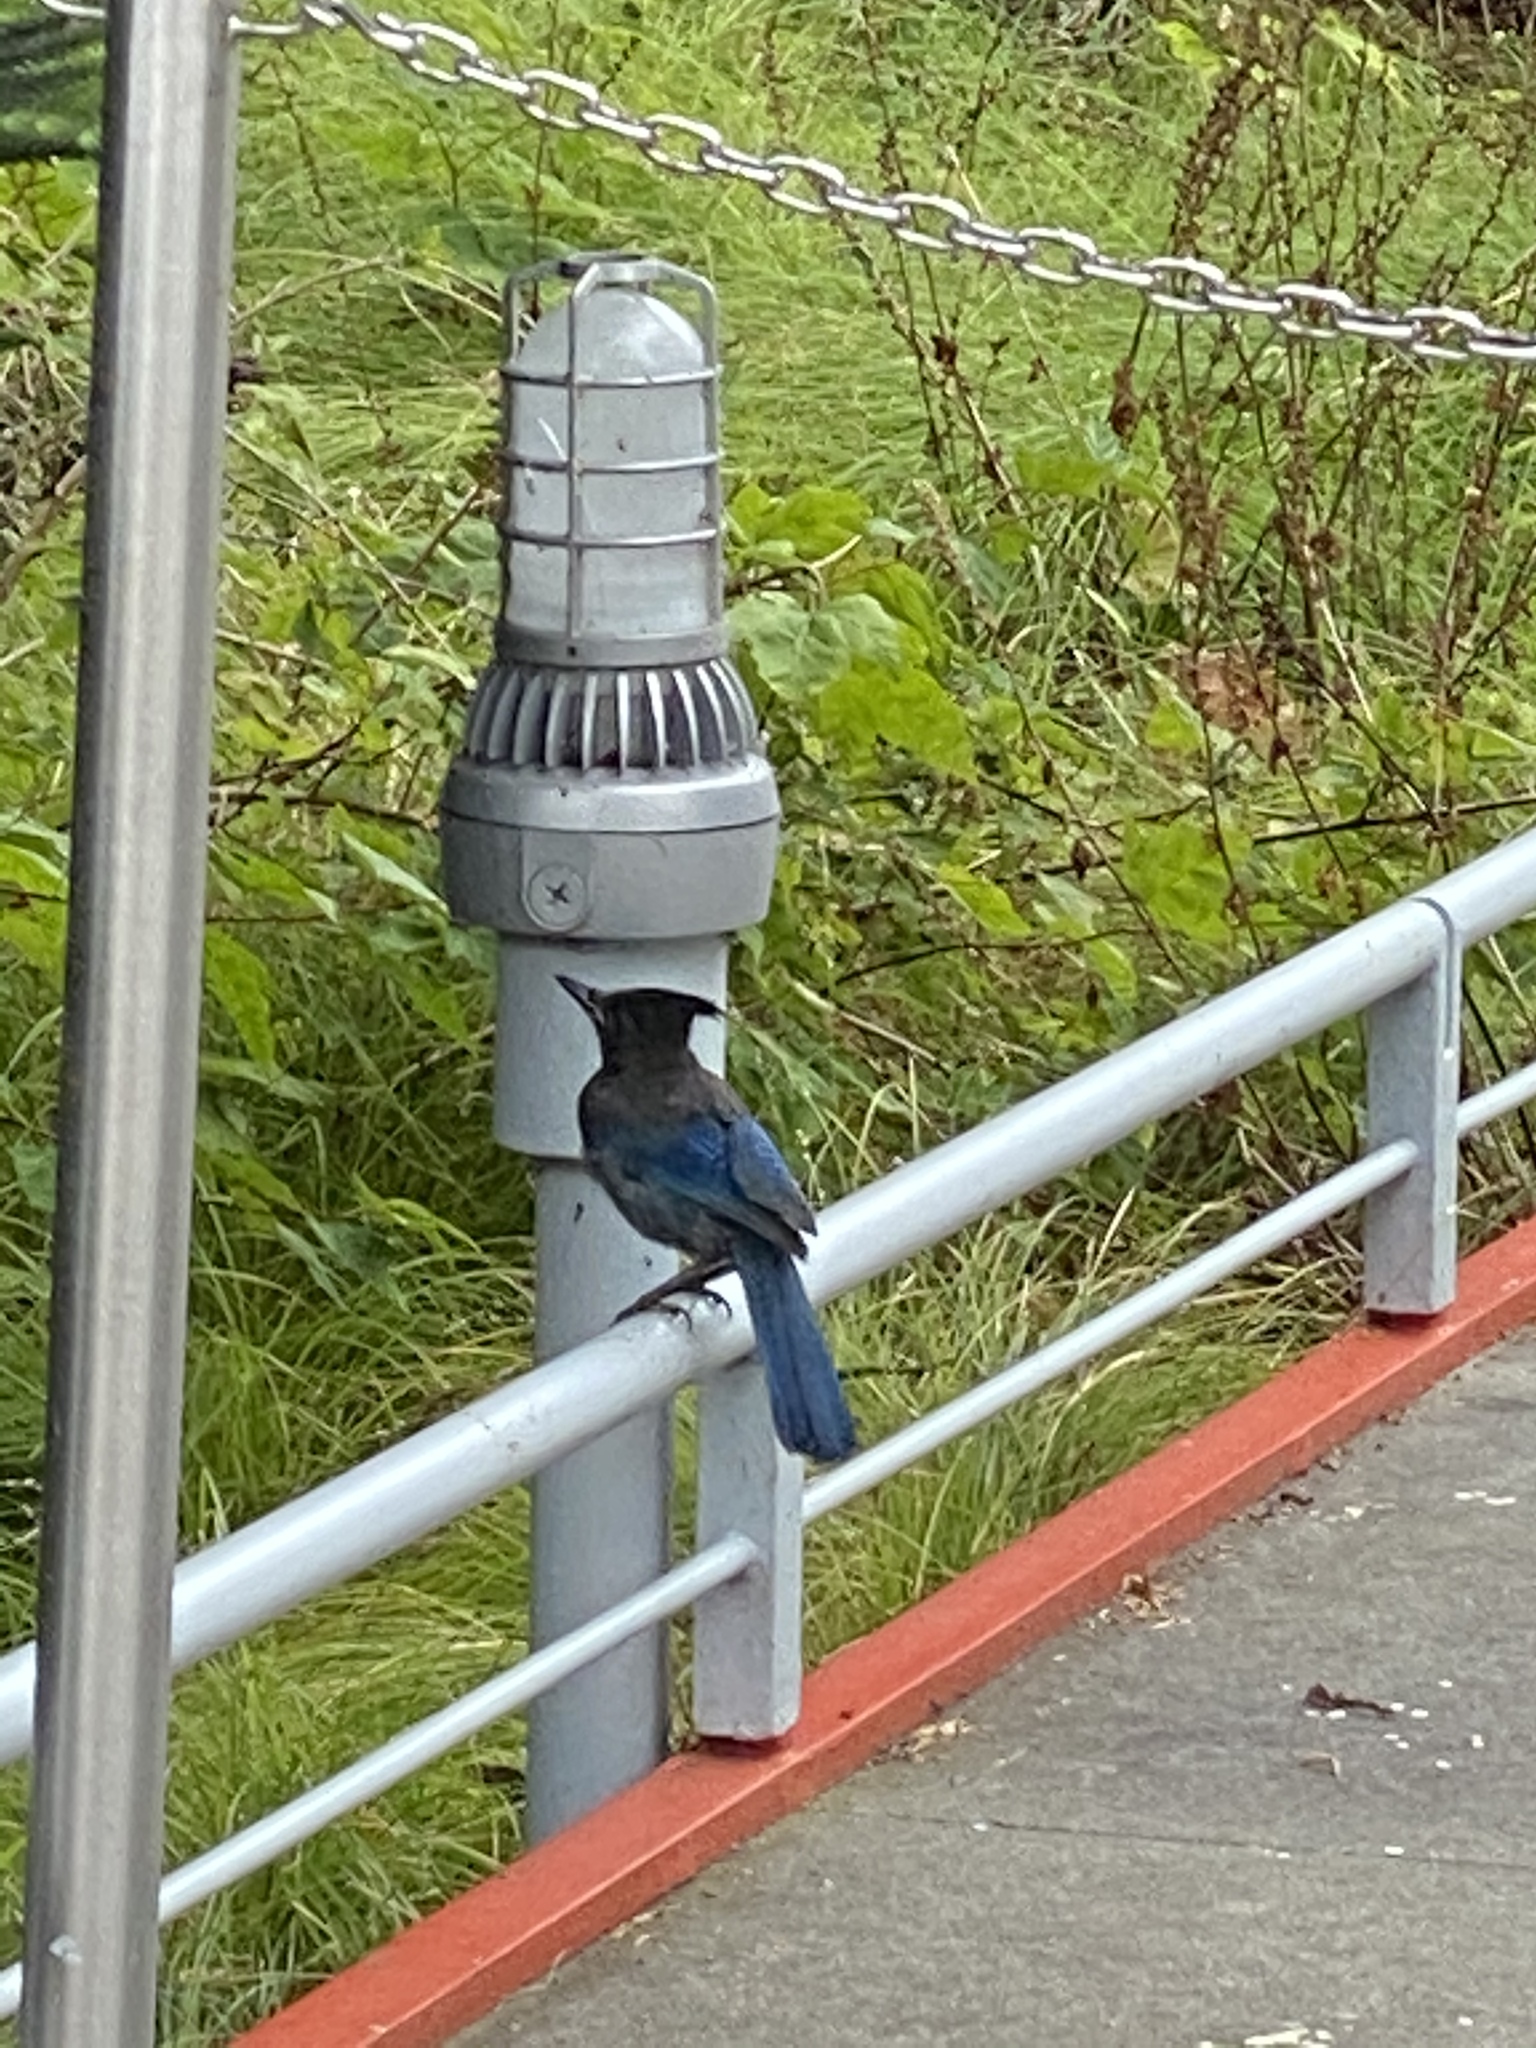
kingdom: Animalia
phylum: Chordata
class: Aves
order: Passeriformes
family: Corvidae
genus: Cyanocitta
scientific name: Cyanocitta stelleri
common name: Steller's jay
